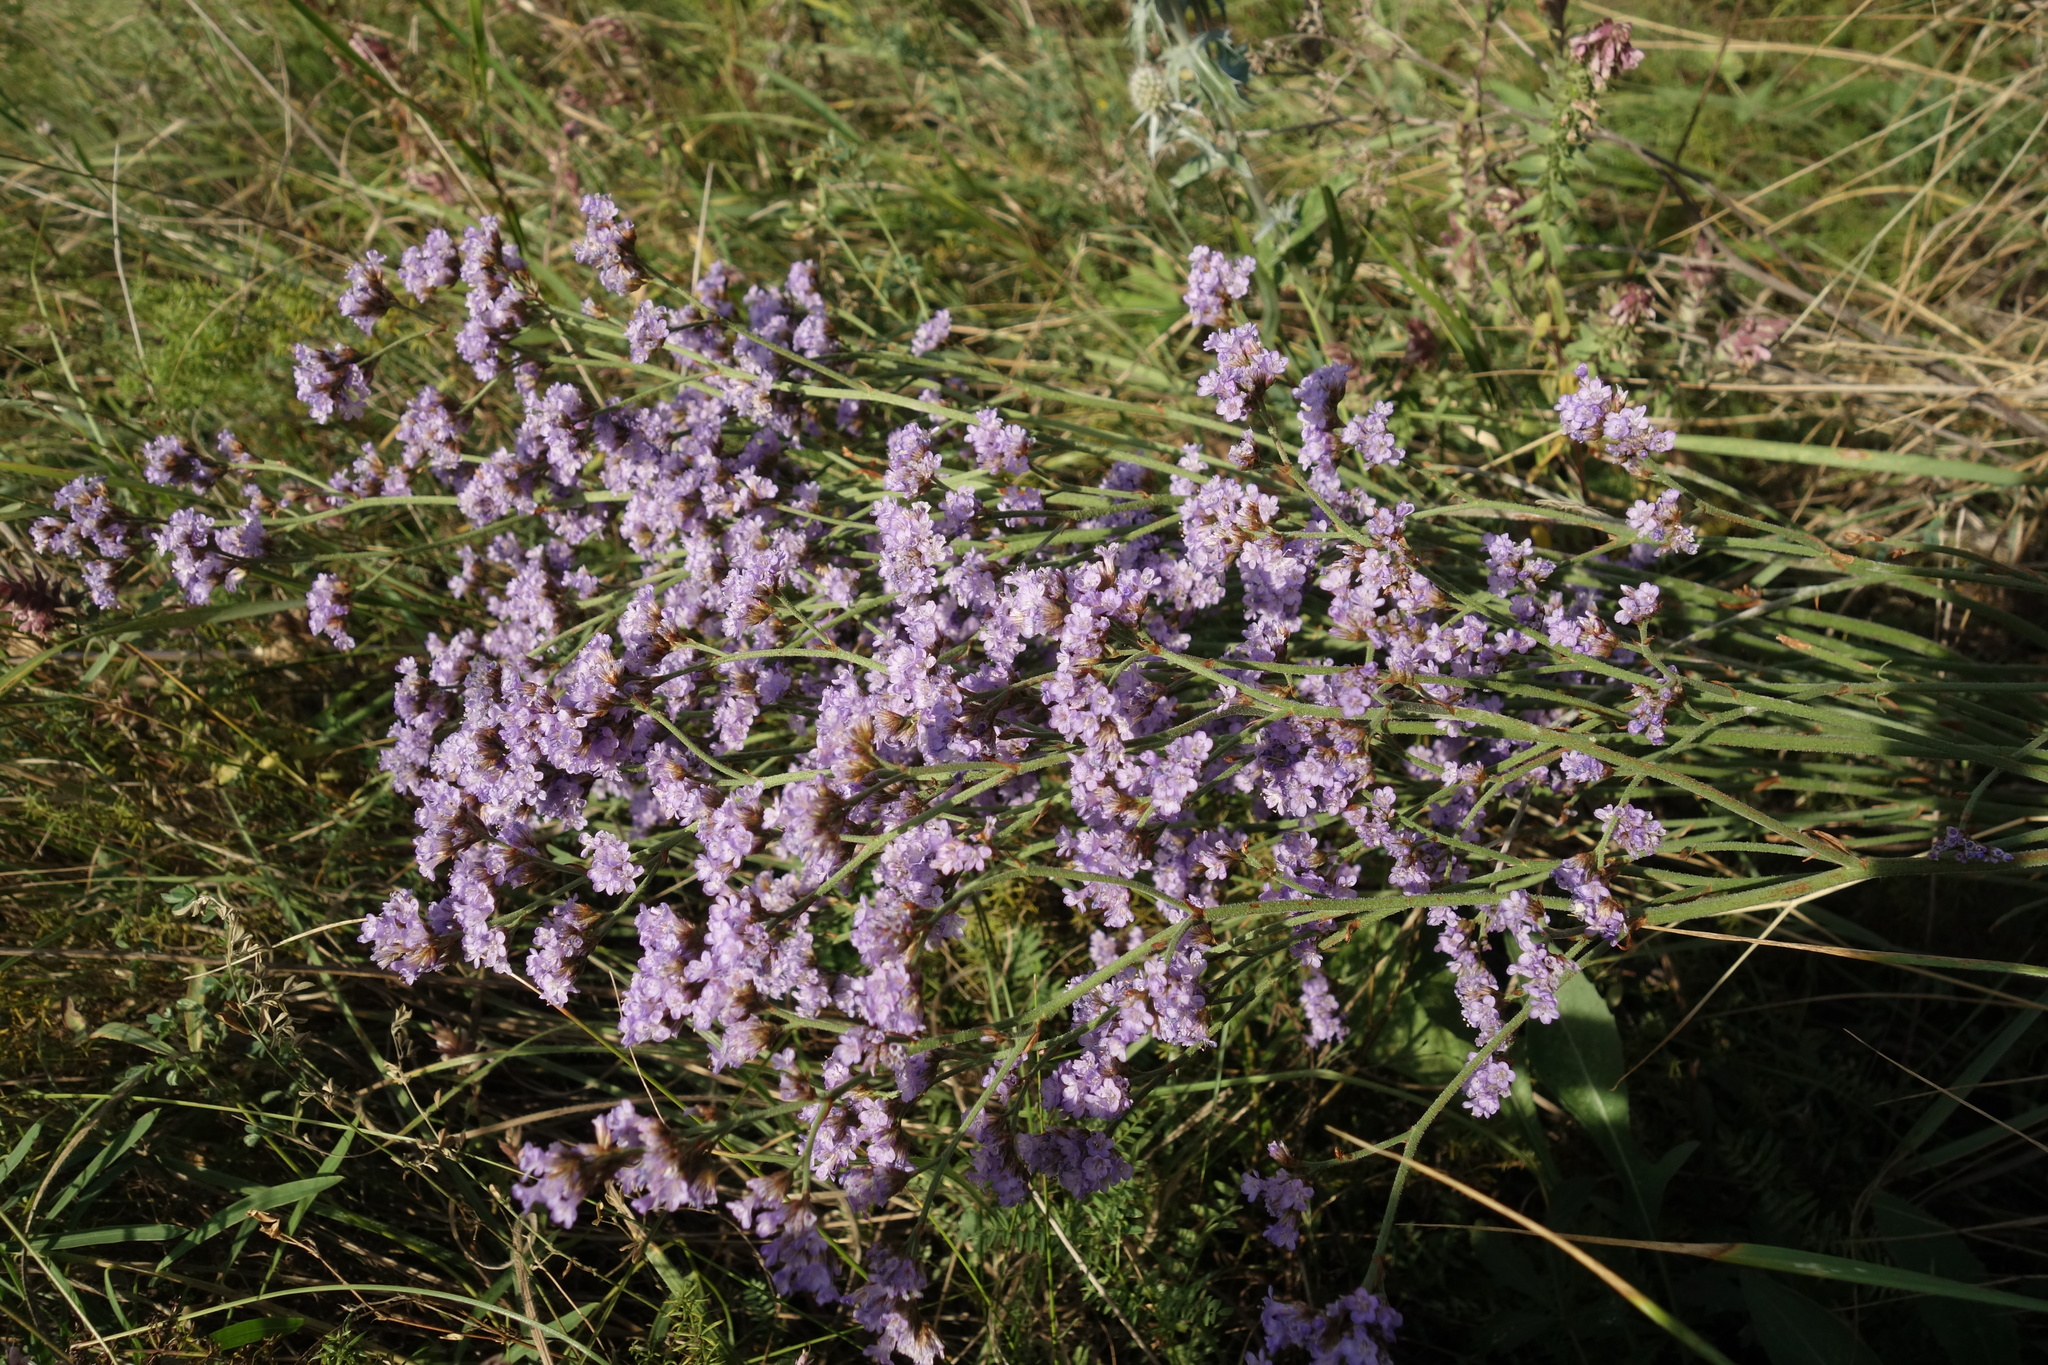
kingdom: Plantae
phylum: Tracheophyta
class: Magnoliopsida
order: Caryophyllales
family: Plumbaginaceae
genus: Limonium
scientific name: Limonium tomentellum
